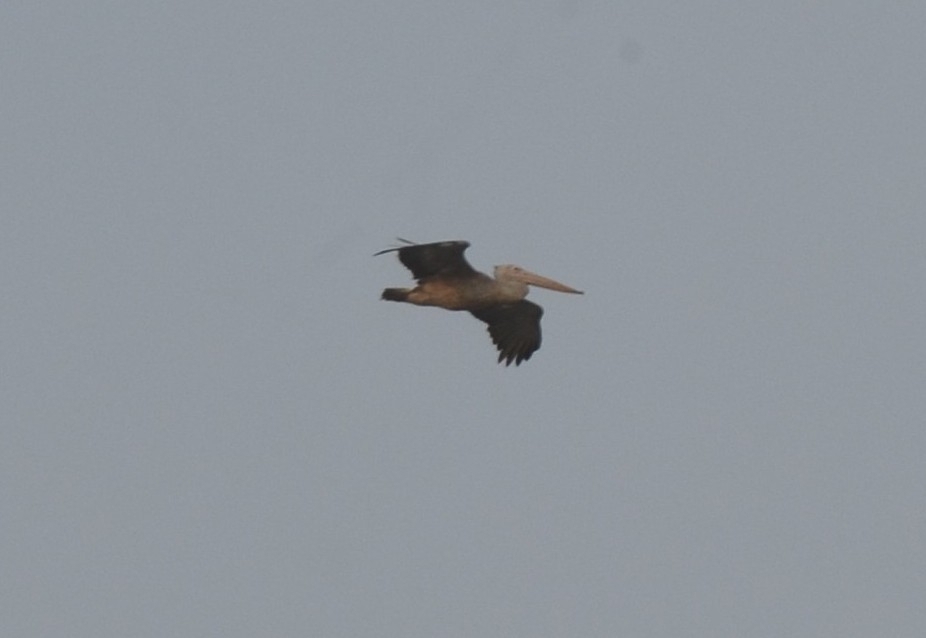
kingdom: Animalia
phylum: Chordata
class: Aves
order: Pelecaniformes
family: Pelecanidae
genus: Pelecanus
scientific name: Pelecanus philippensis
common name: Spot-billed pelican
